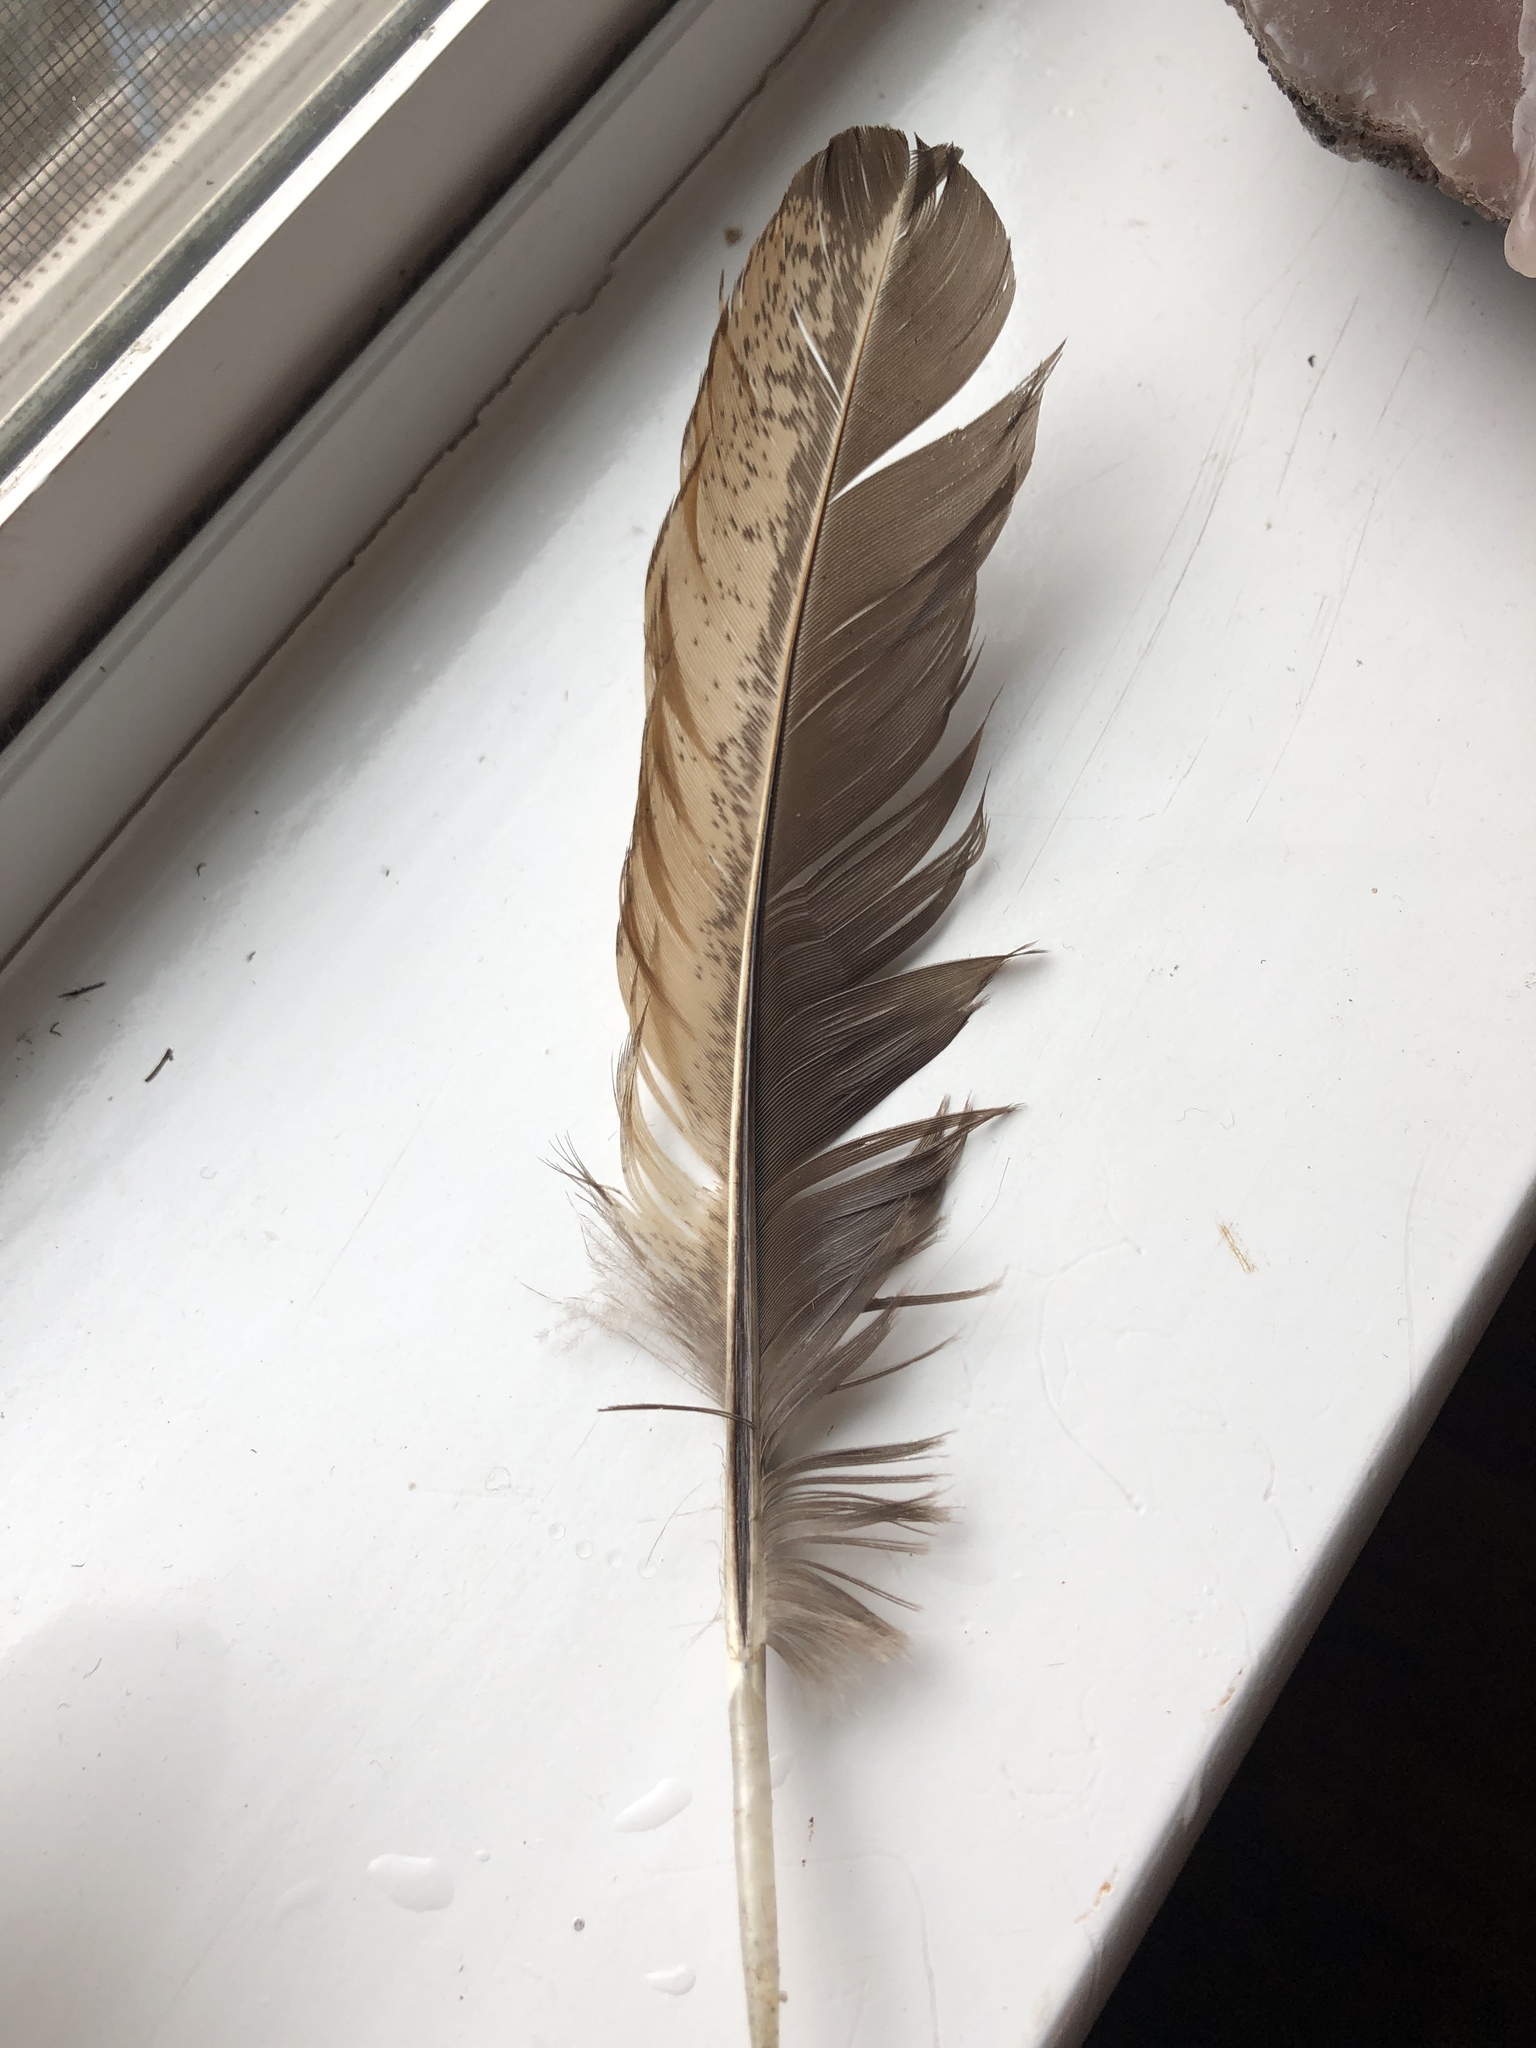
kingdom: Animalia
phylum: Chordata
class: Aves
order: Accipitriformes
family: Accipitridae
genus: Buteo
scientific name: Buteo jamaicensis
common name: Red-tailed hawk
